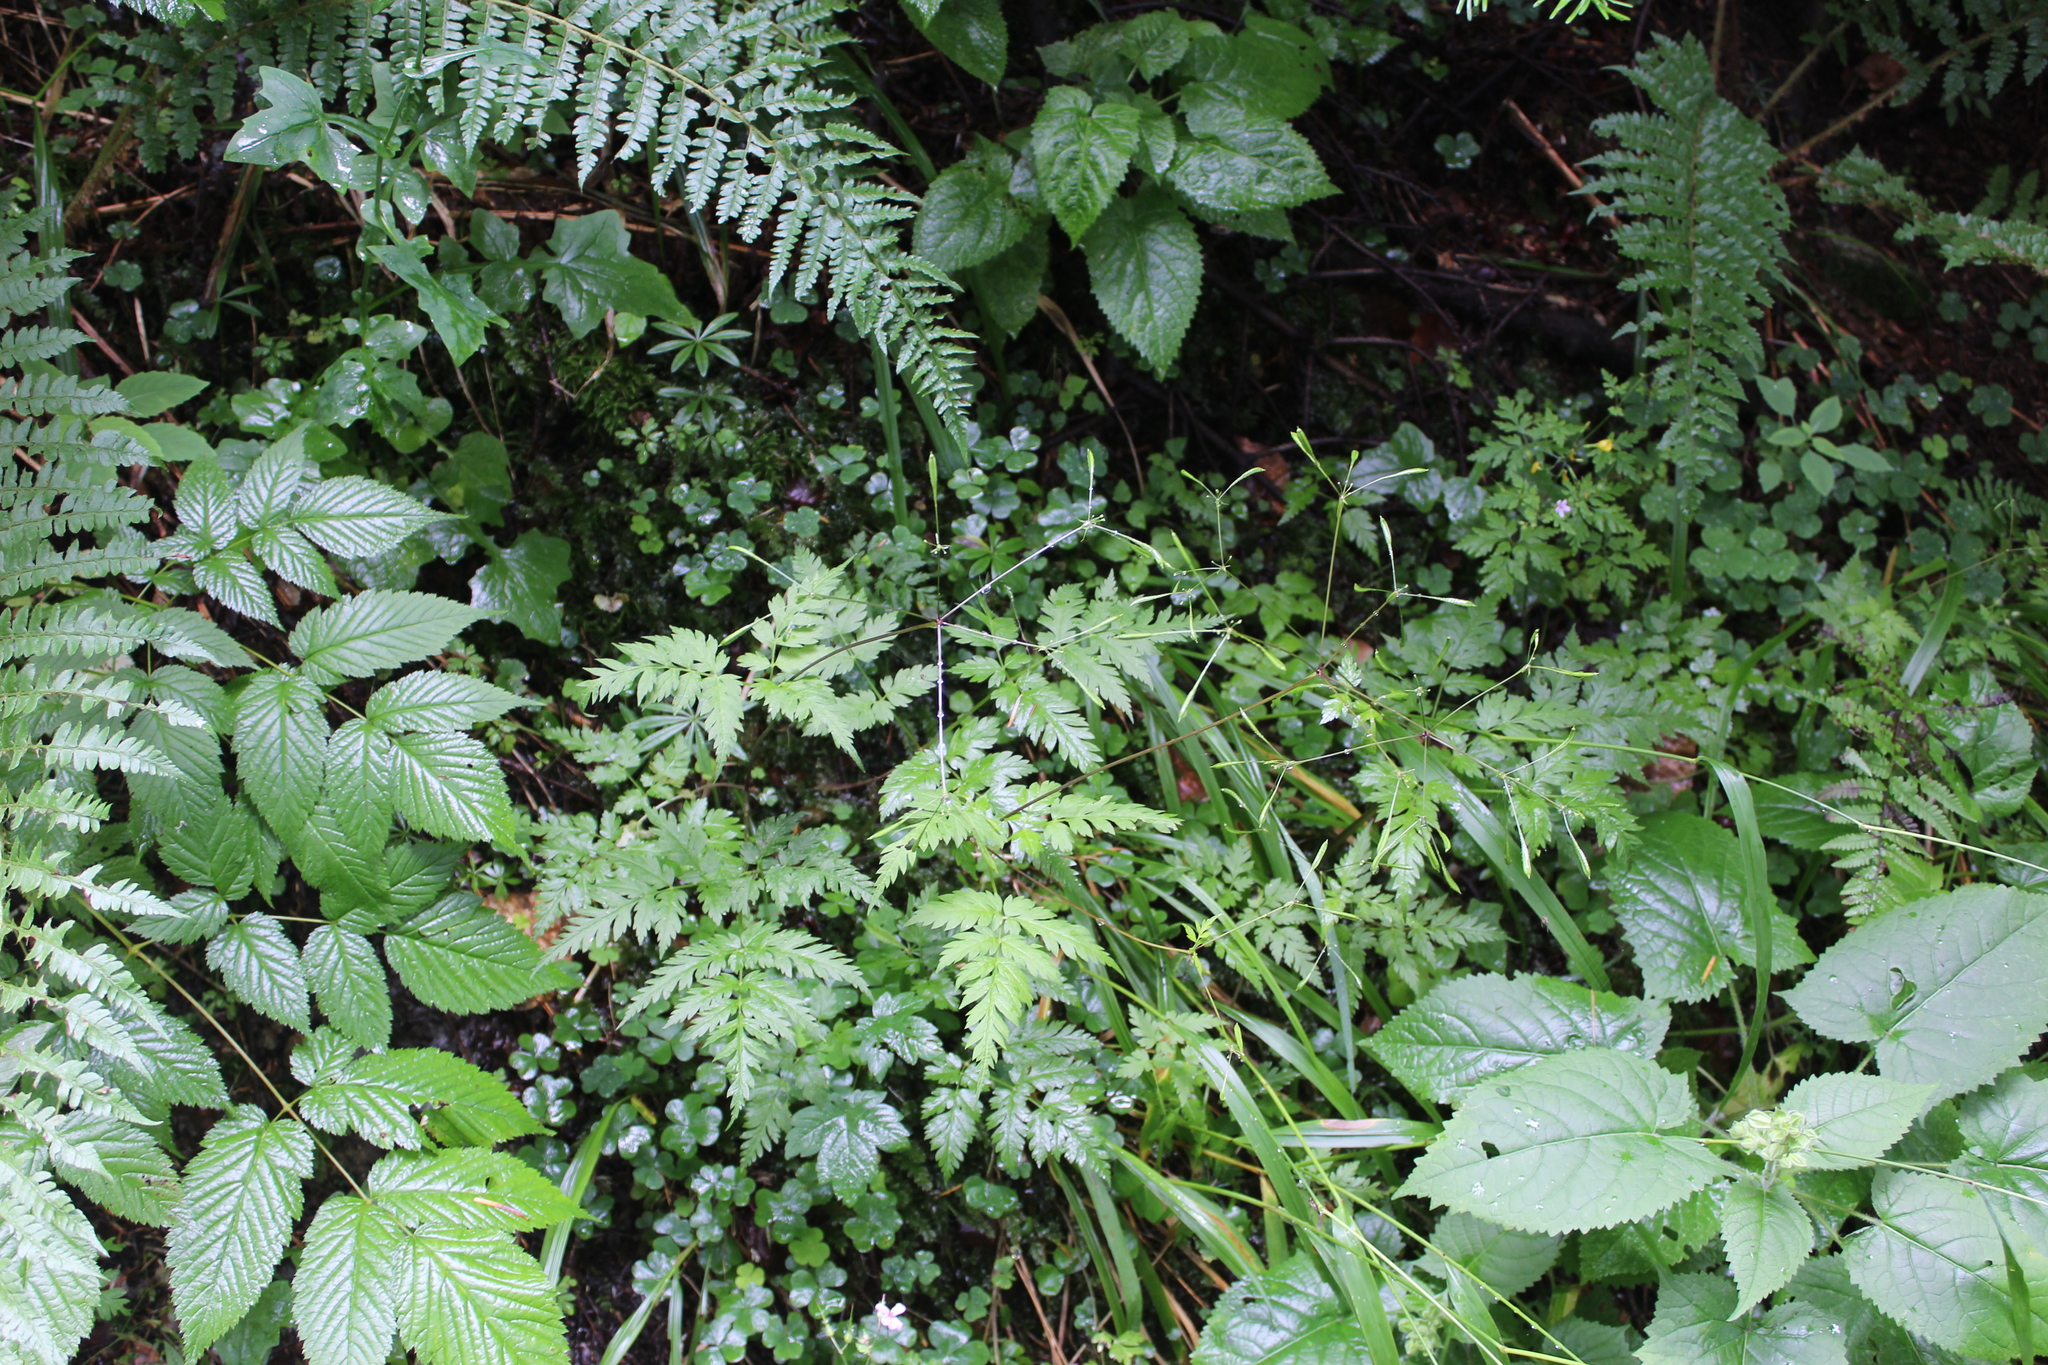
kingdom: Plantae
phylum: Tracheophyta
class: Magnoliopsida
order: Apiales
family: Apiaceae
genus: Osmorhiza
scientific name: Osmorhiza aristata
